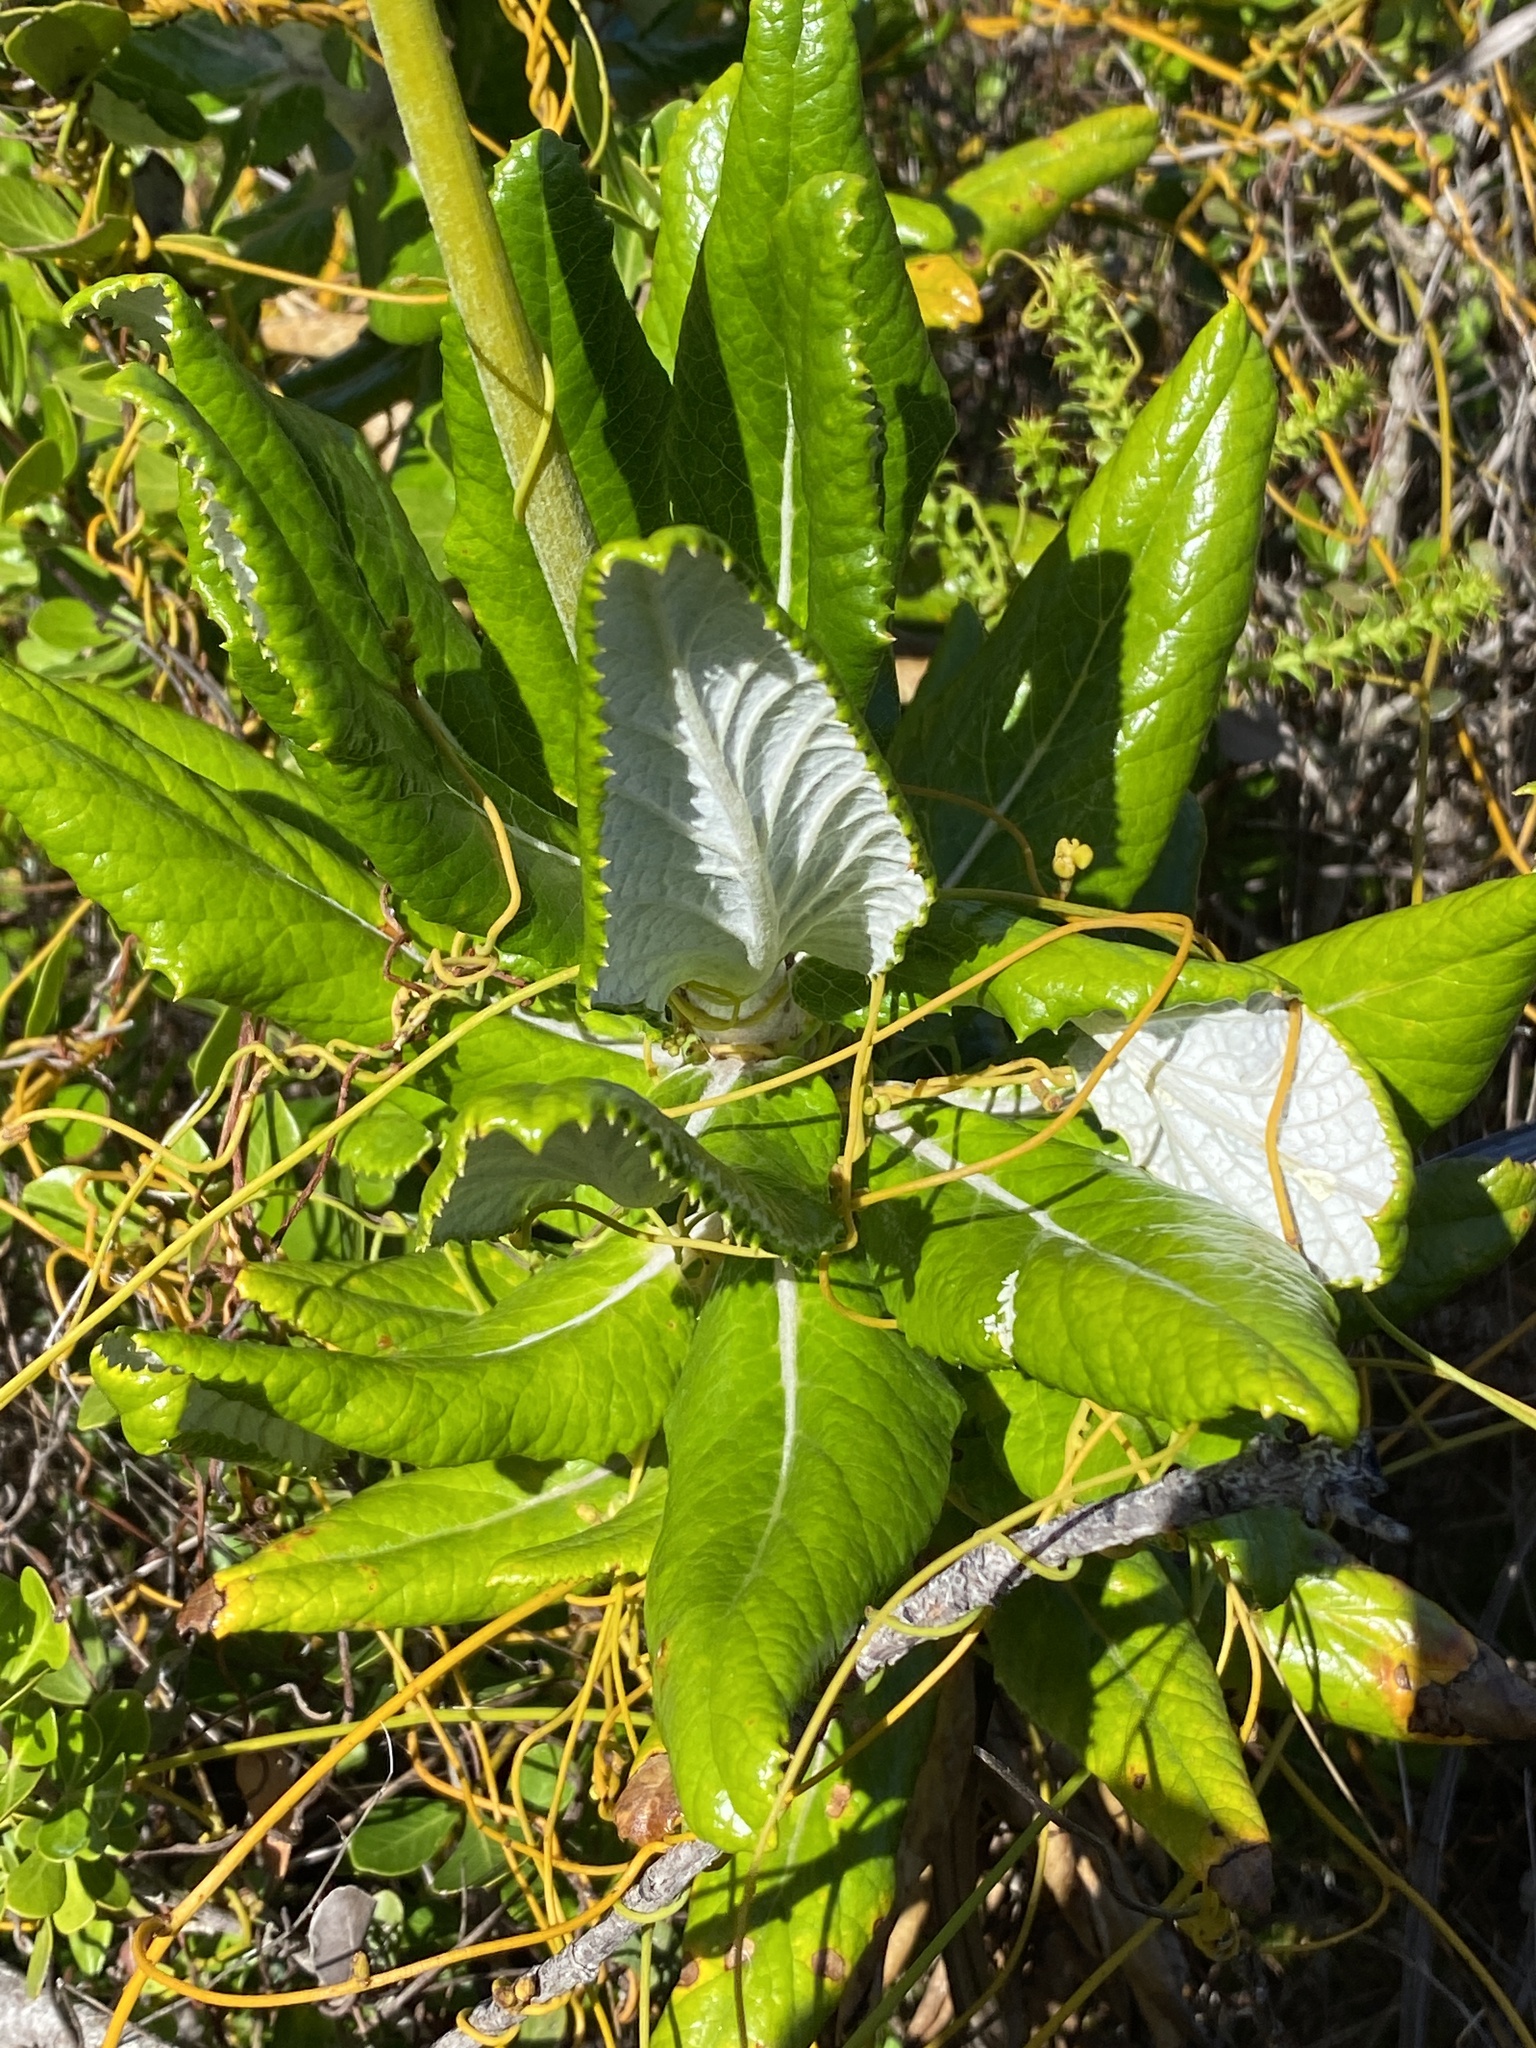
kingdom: Plantae
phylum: Tracheophyta
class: Magnoliopsida
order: Apiales
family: Apiaceae
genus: Hermas
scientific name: Hermas villosa
